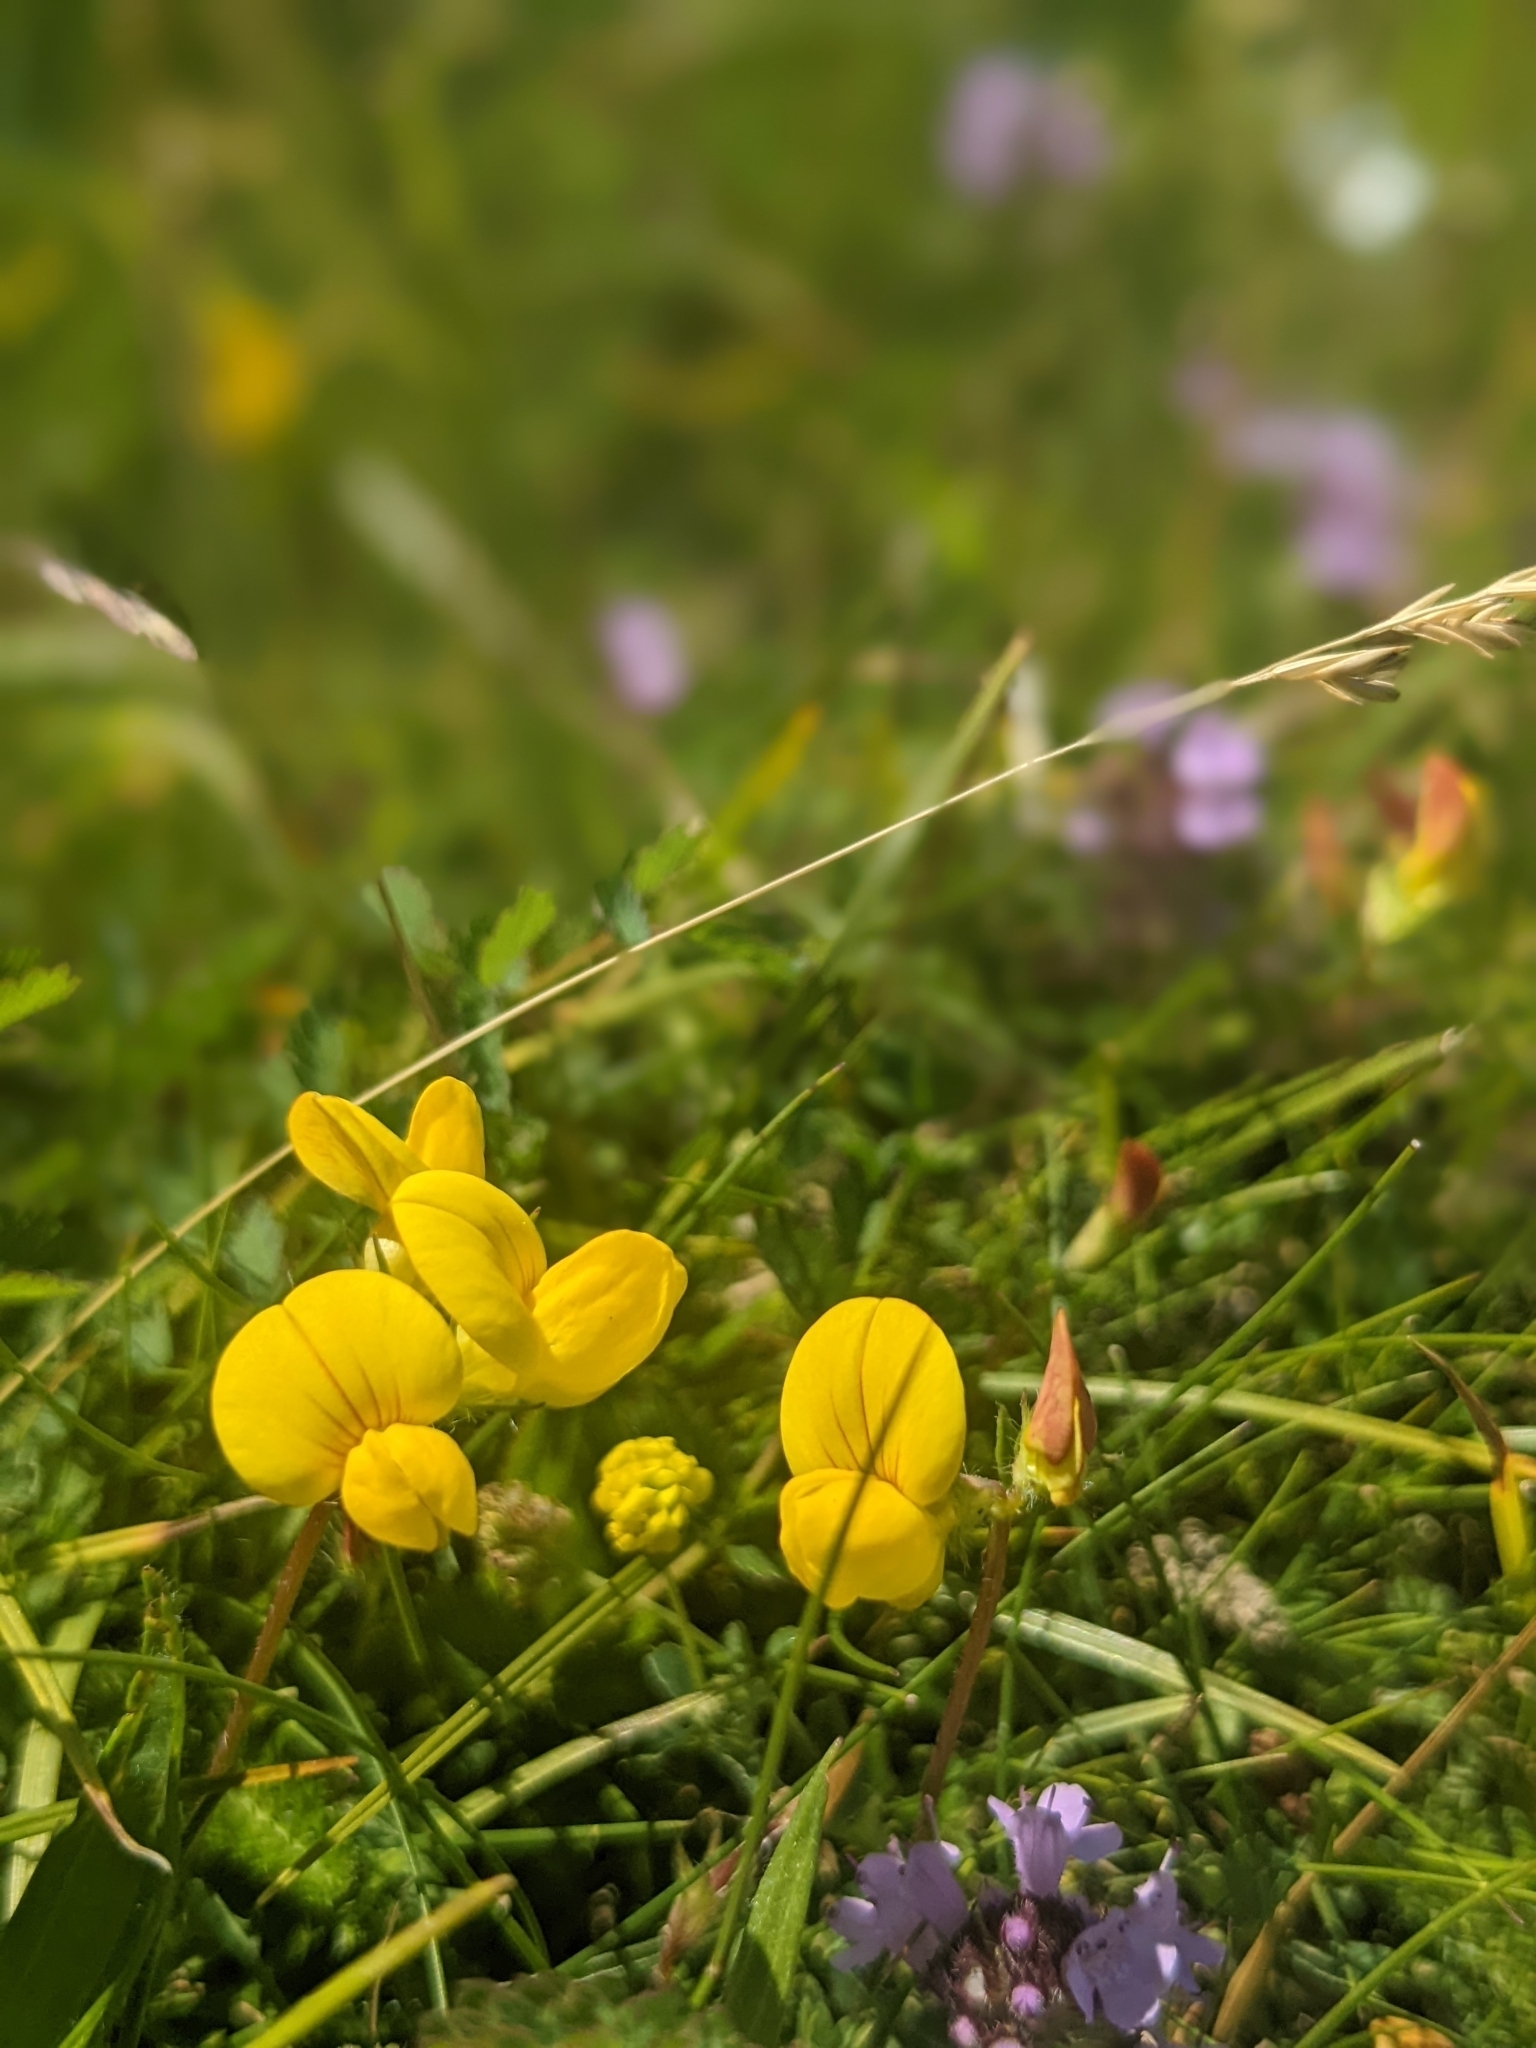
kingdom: Plantae
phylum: Tracheophyta
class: Magnoliopsida
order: Fabales
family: Fabaceae
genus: Lotus
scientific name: Lotus corniculatus
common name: Common bird's-foot-trefoil
